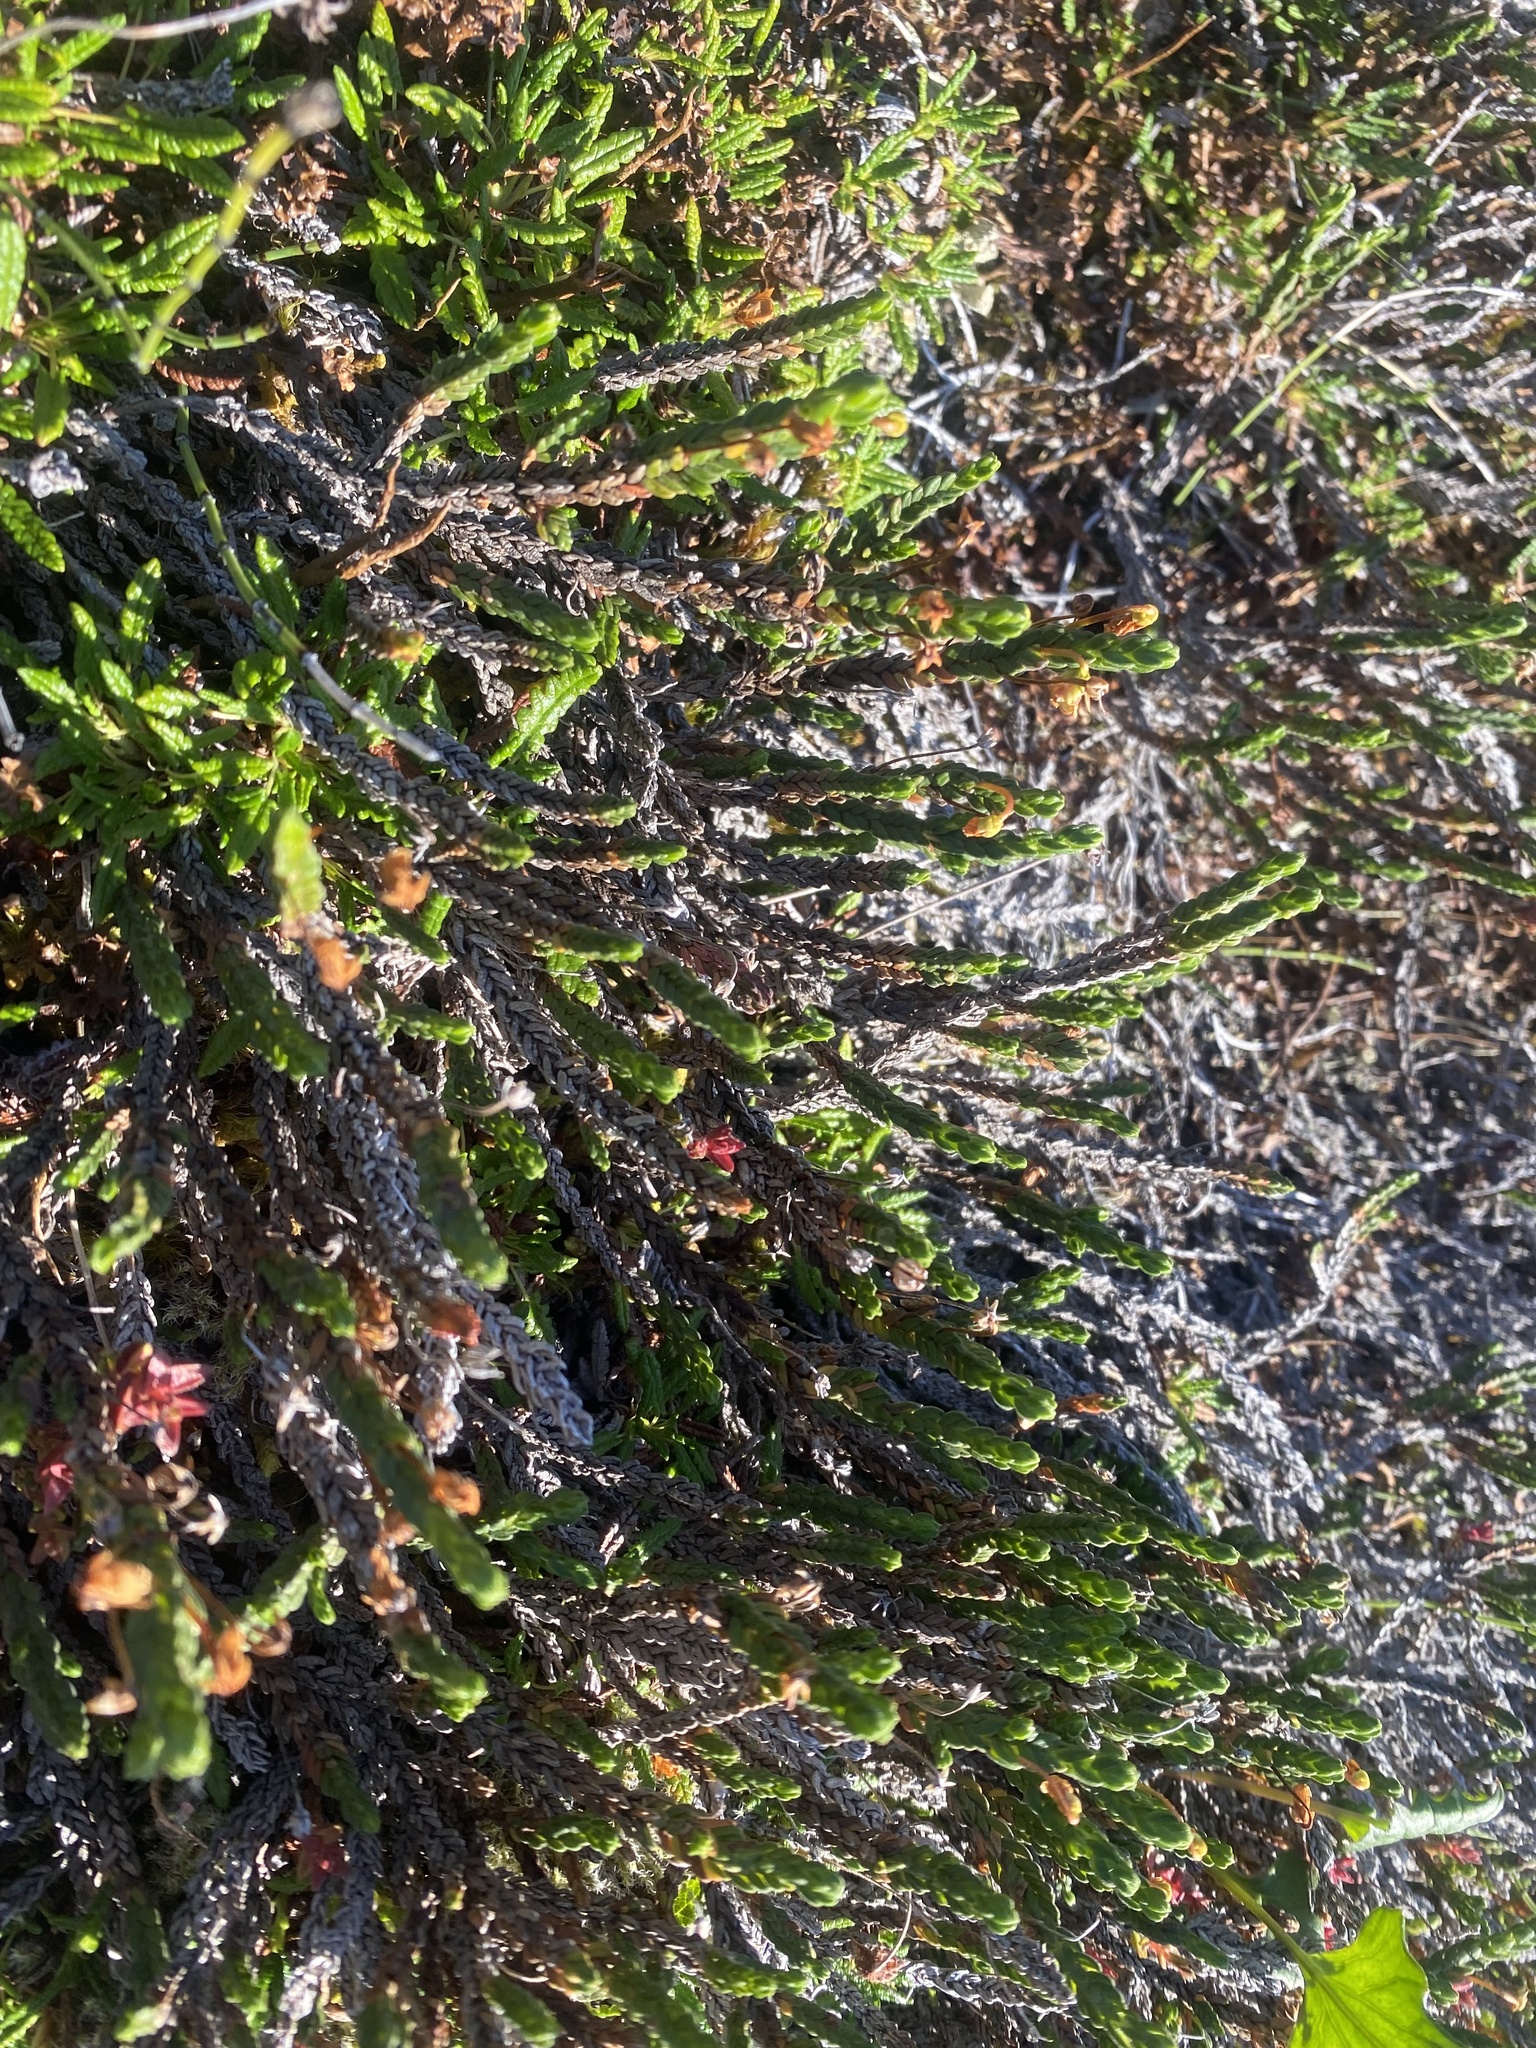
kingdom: Plantae
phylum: Tracheophyta
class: Magnoliopsida
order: Ericales
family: Ericaceae
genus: Cassiope
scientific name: Cassiope tetragona
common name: Arctic bell heather
